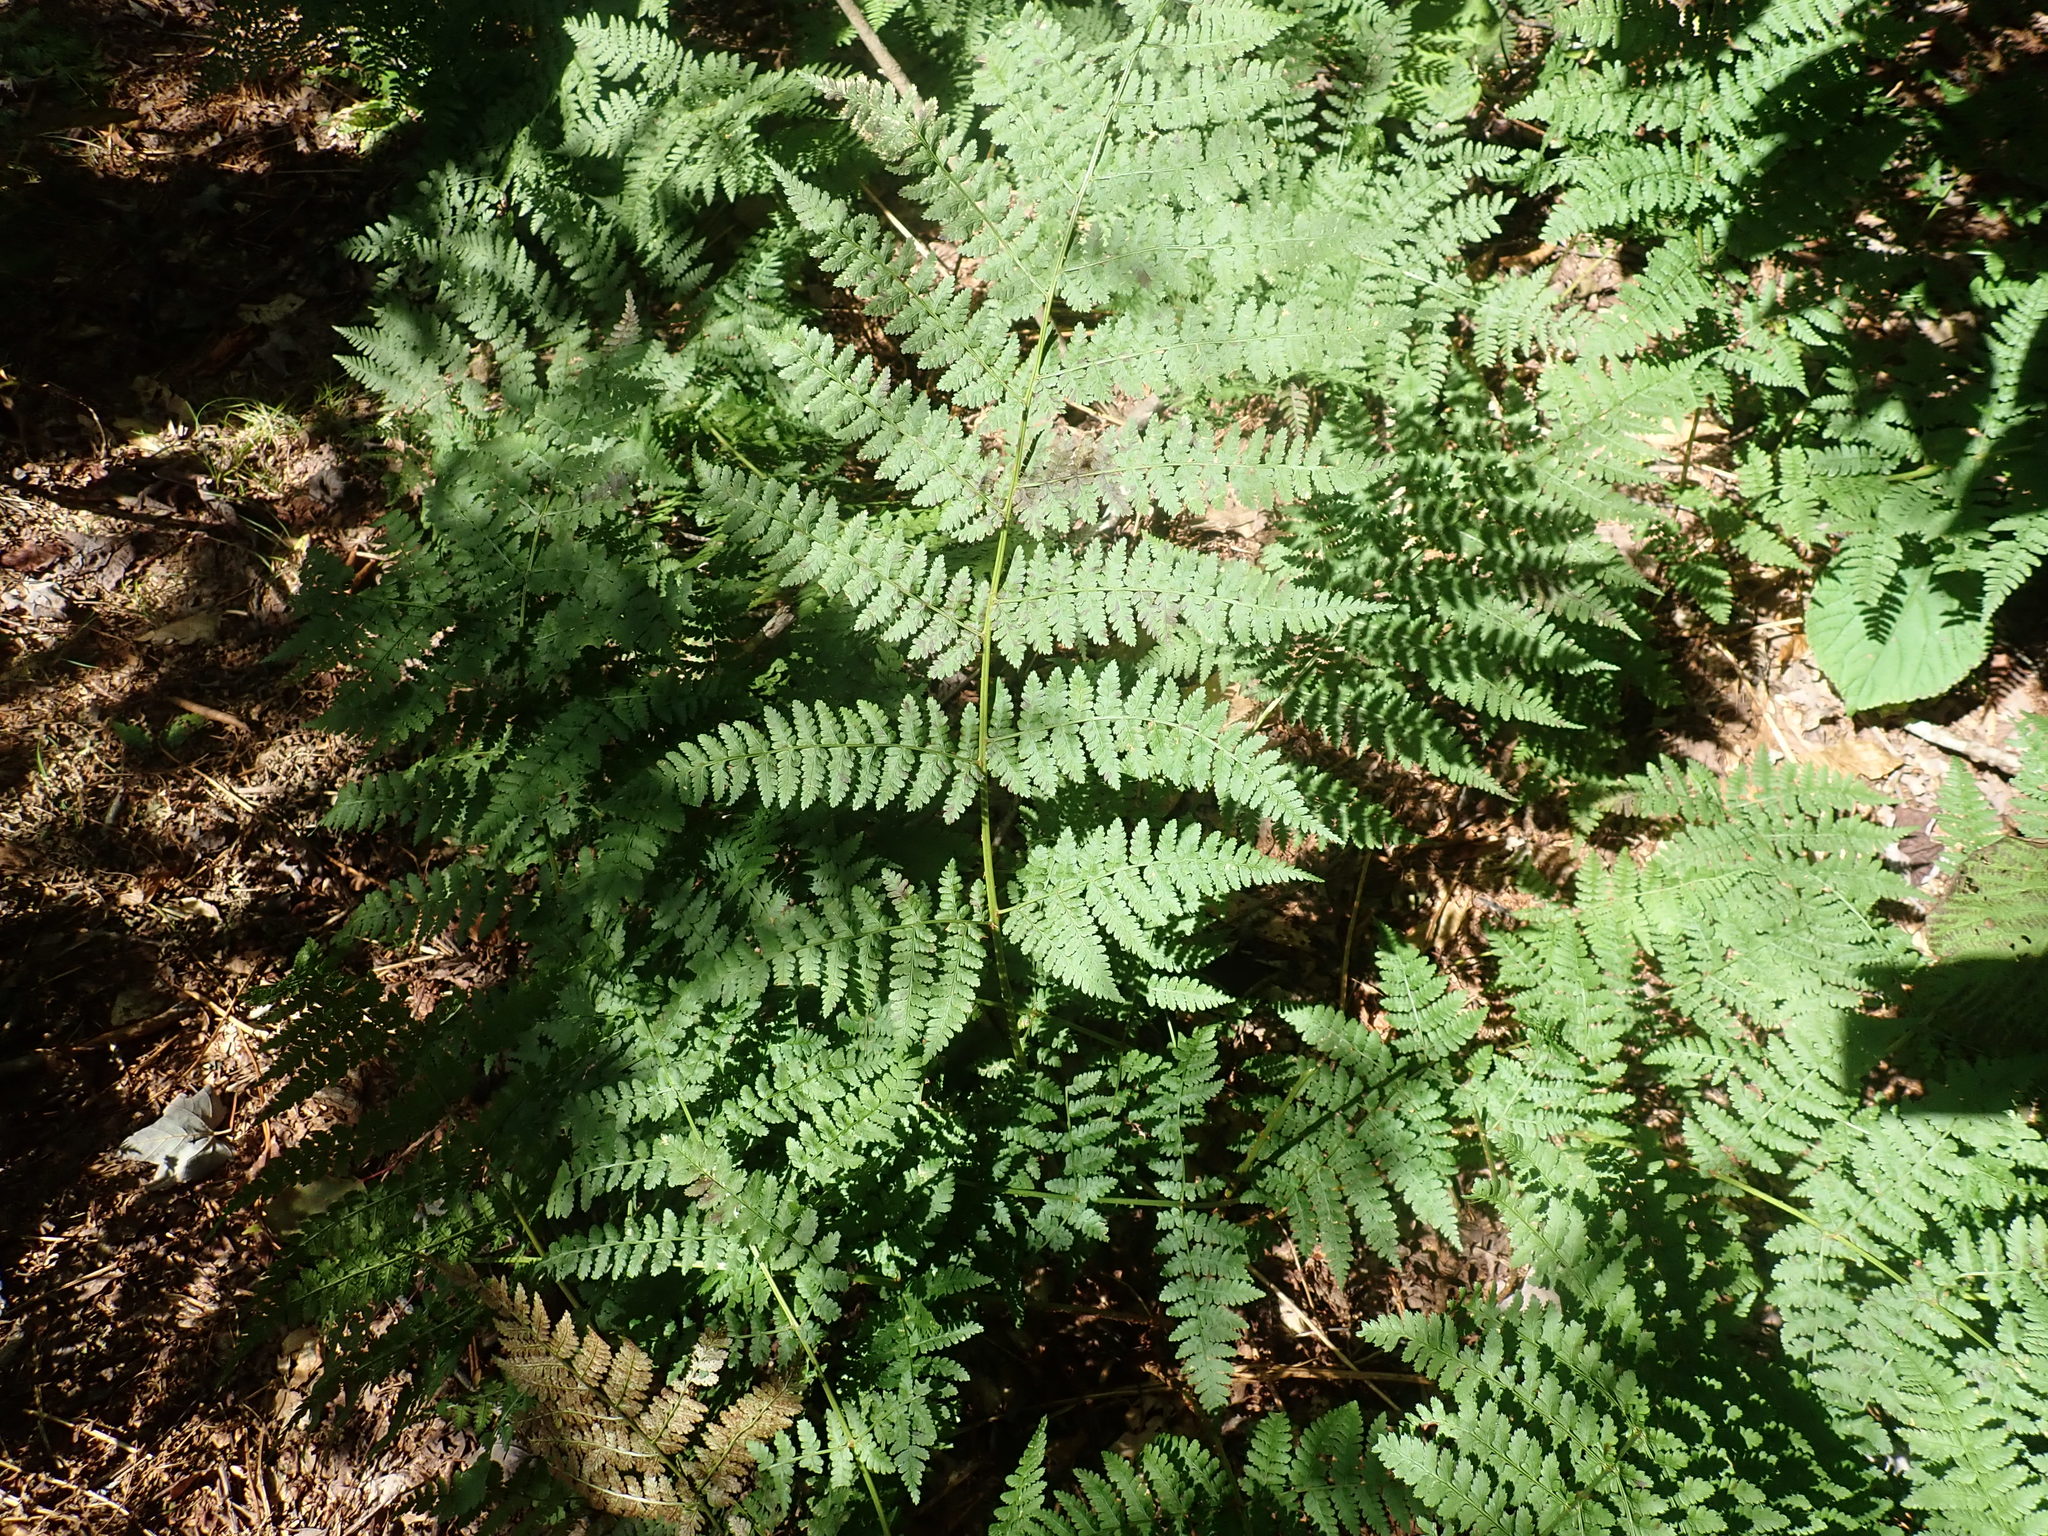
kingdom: Plantae
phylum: Tracheophyta
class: Polypodiopsida
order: Polypodiales
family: Dryopteridaceae
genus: Dryopteris
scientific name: Dryopteris campyloptera
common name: Mountain wood fern
